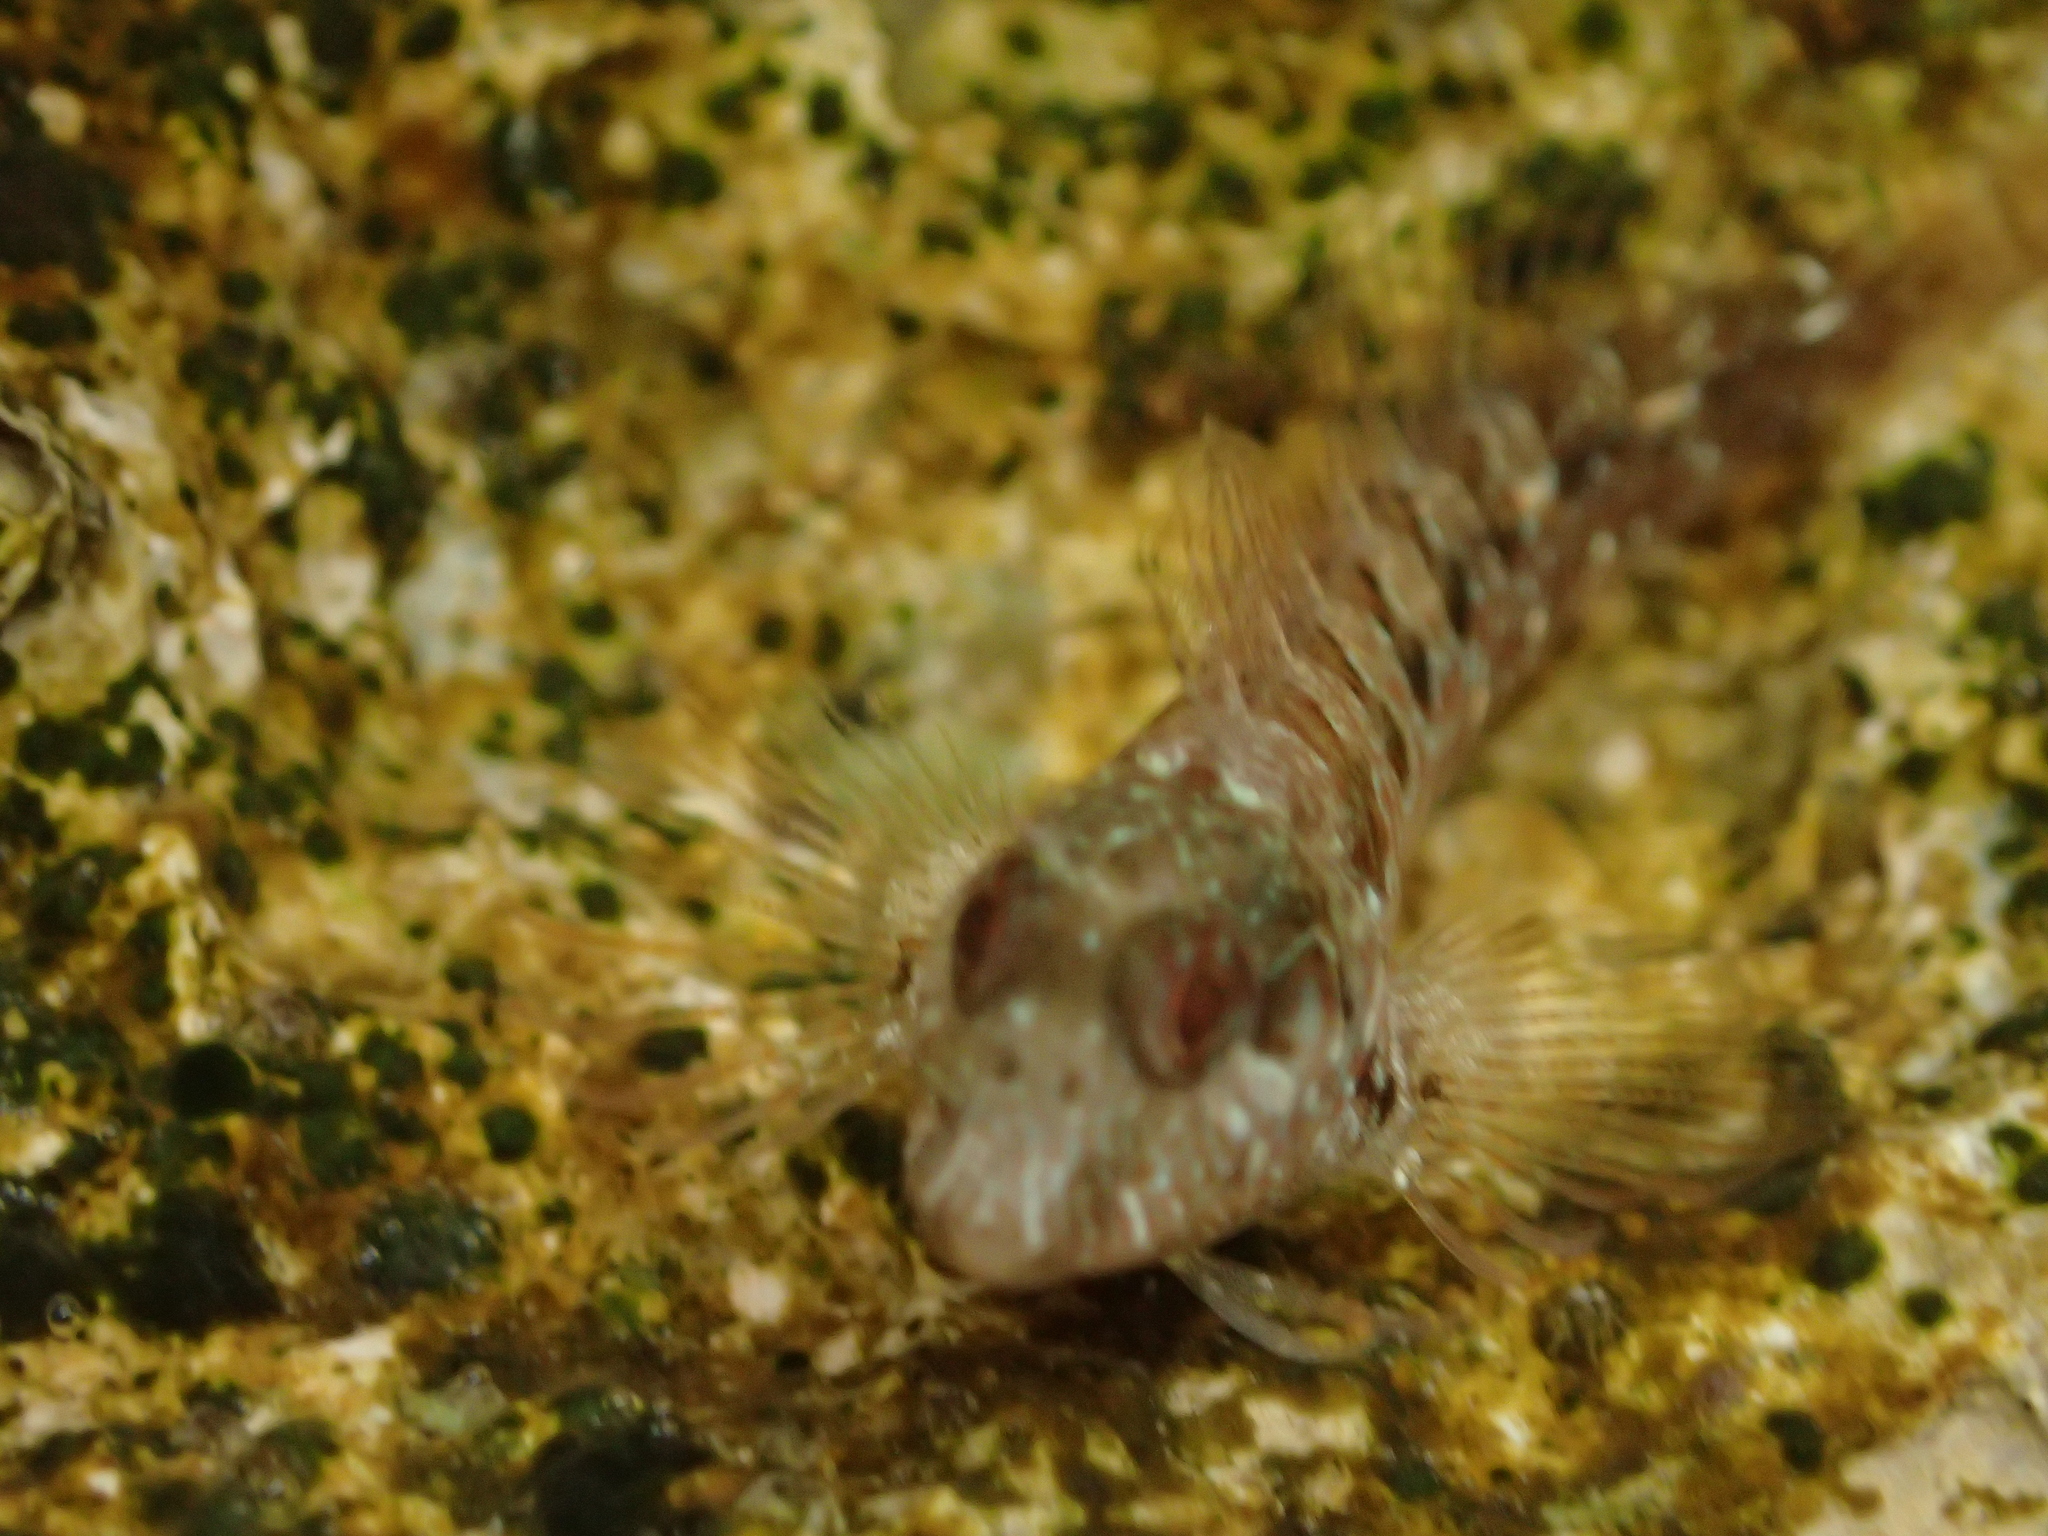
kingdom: Animalia
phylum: Chordata
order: Perciformes
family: Blenniidae
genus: Parablennius
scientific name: Parablennius incognitus
